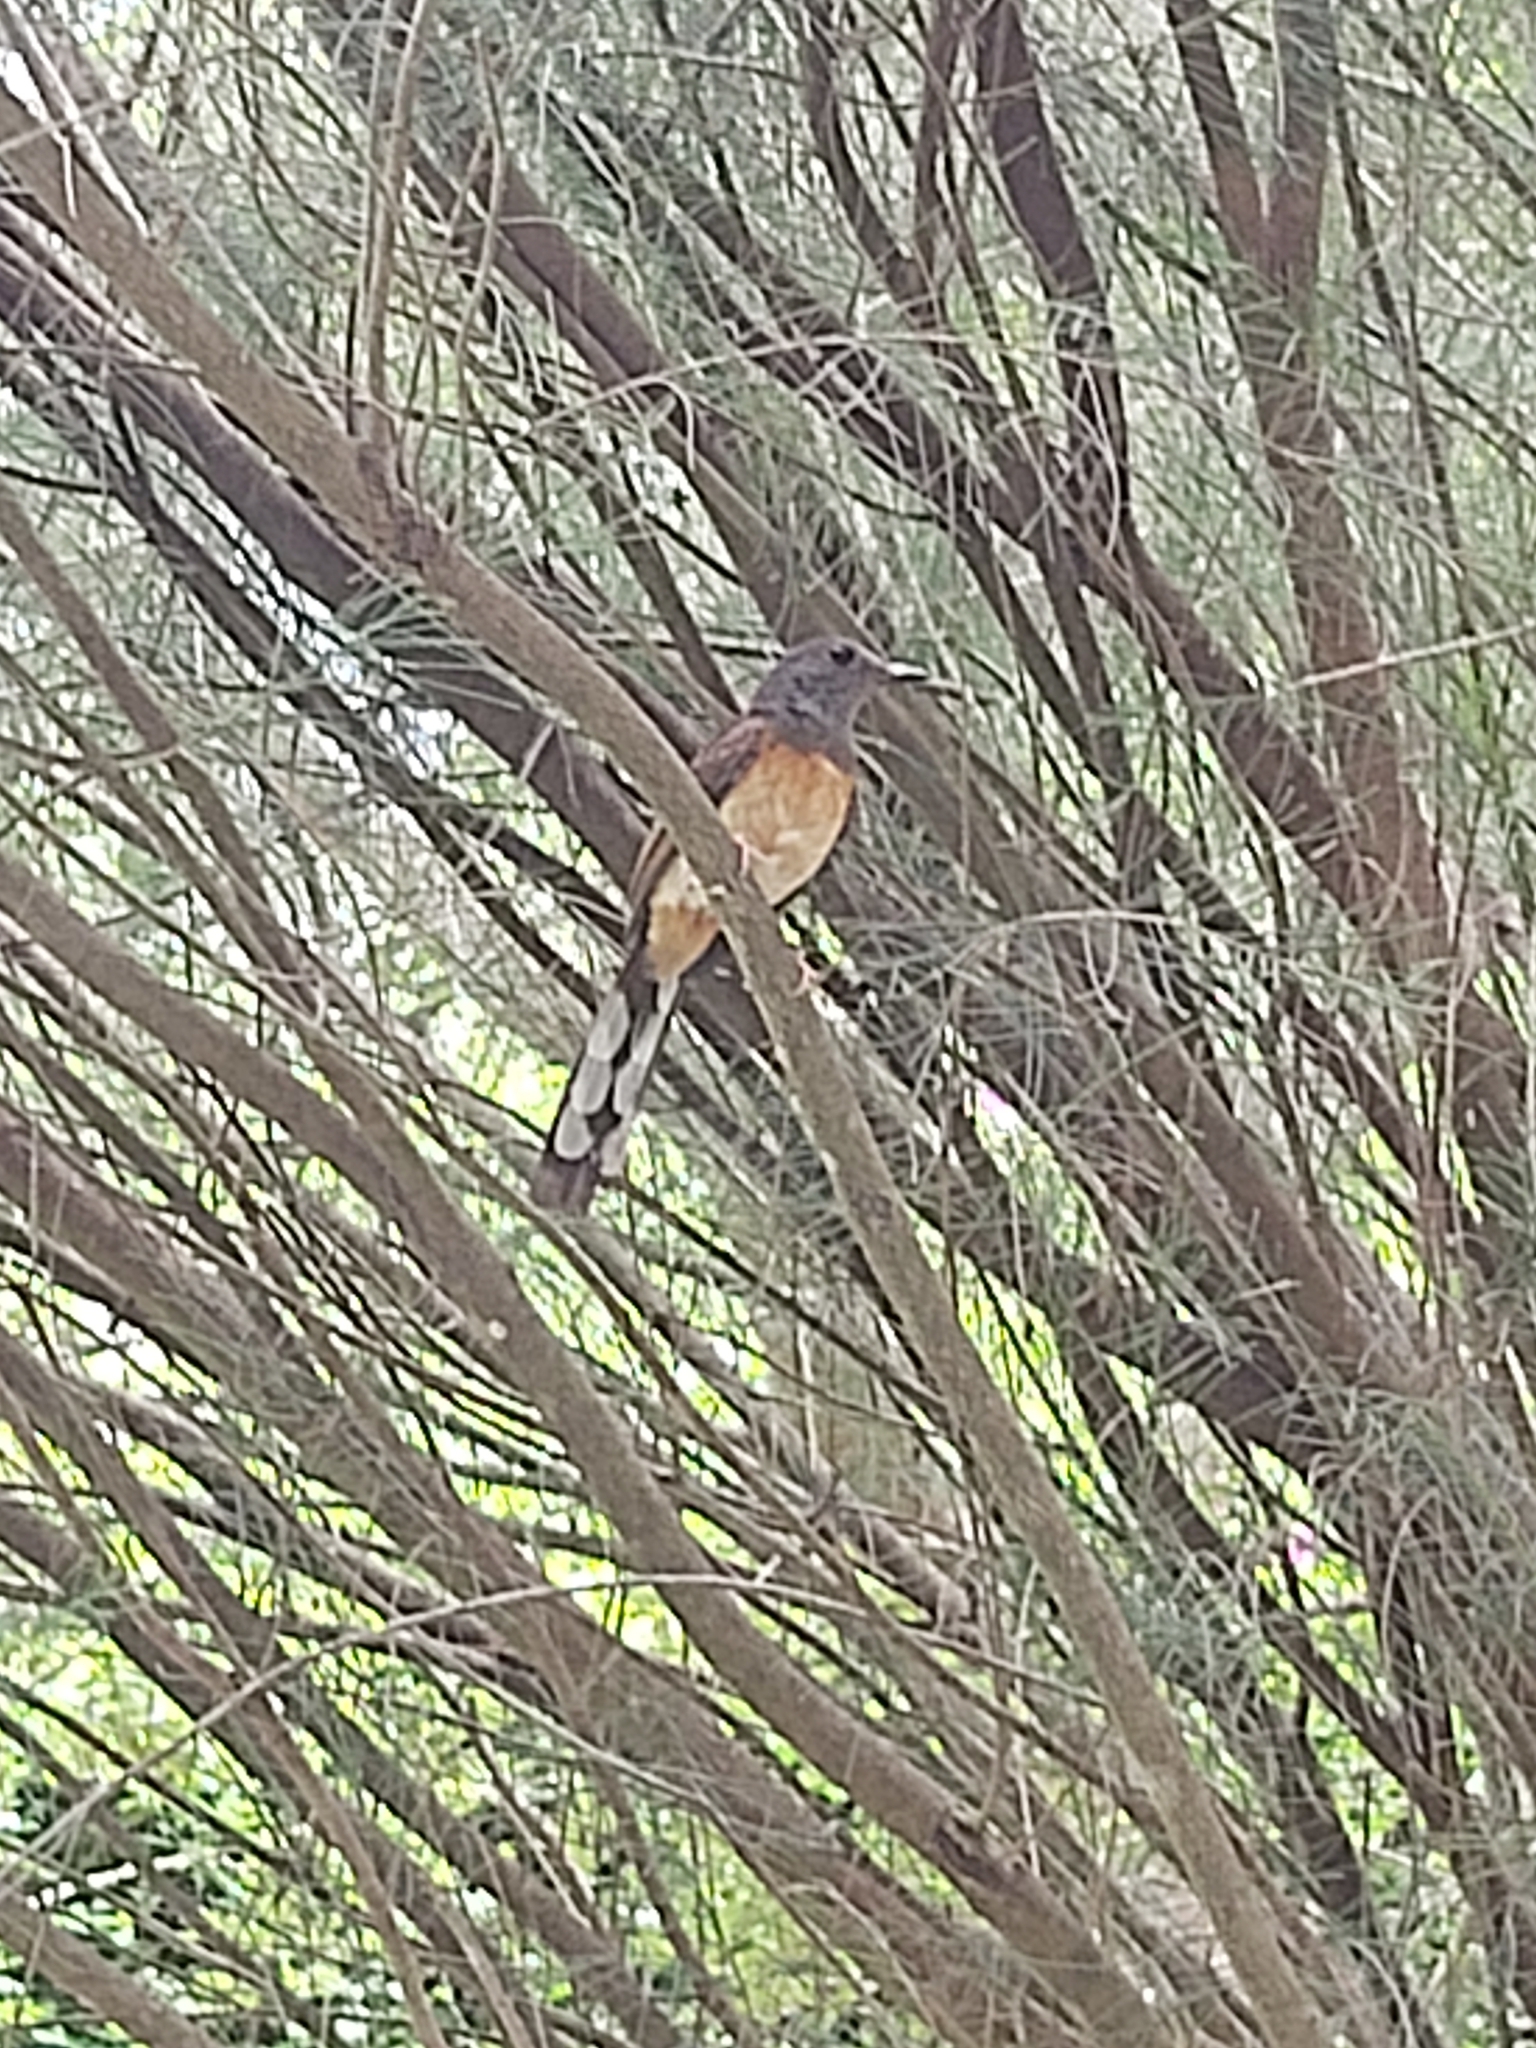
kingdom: Animalia
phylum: Chordata
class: Aves
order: Passeriformes
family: Muscicapidae
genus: Copsychus
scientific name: Copsychus malabaricus
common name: White-rumped shama
